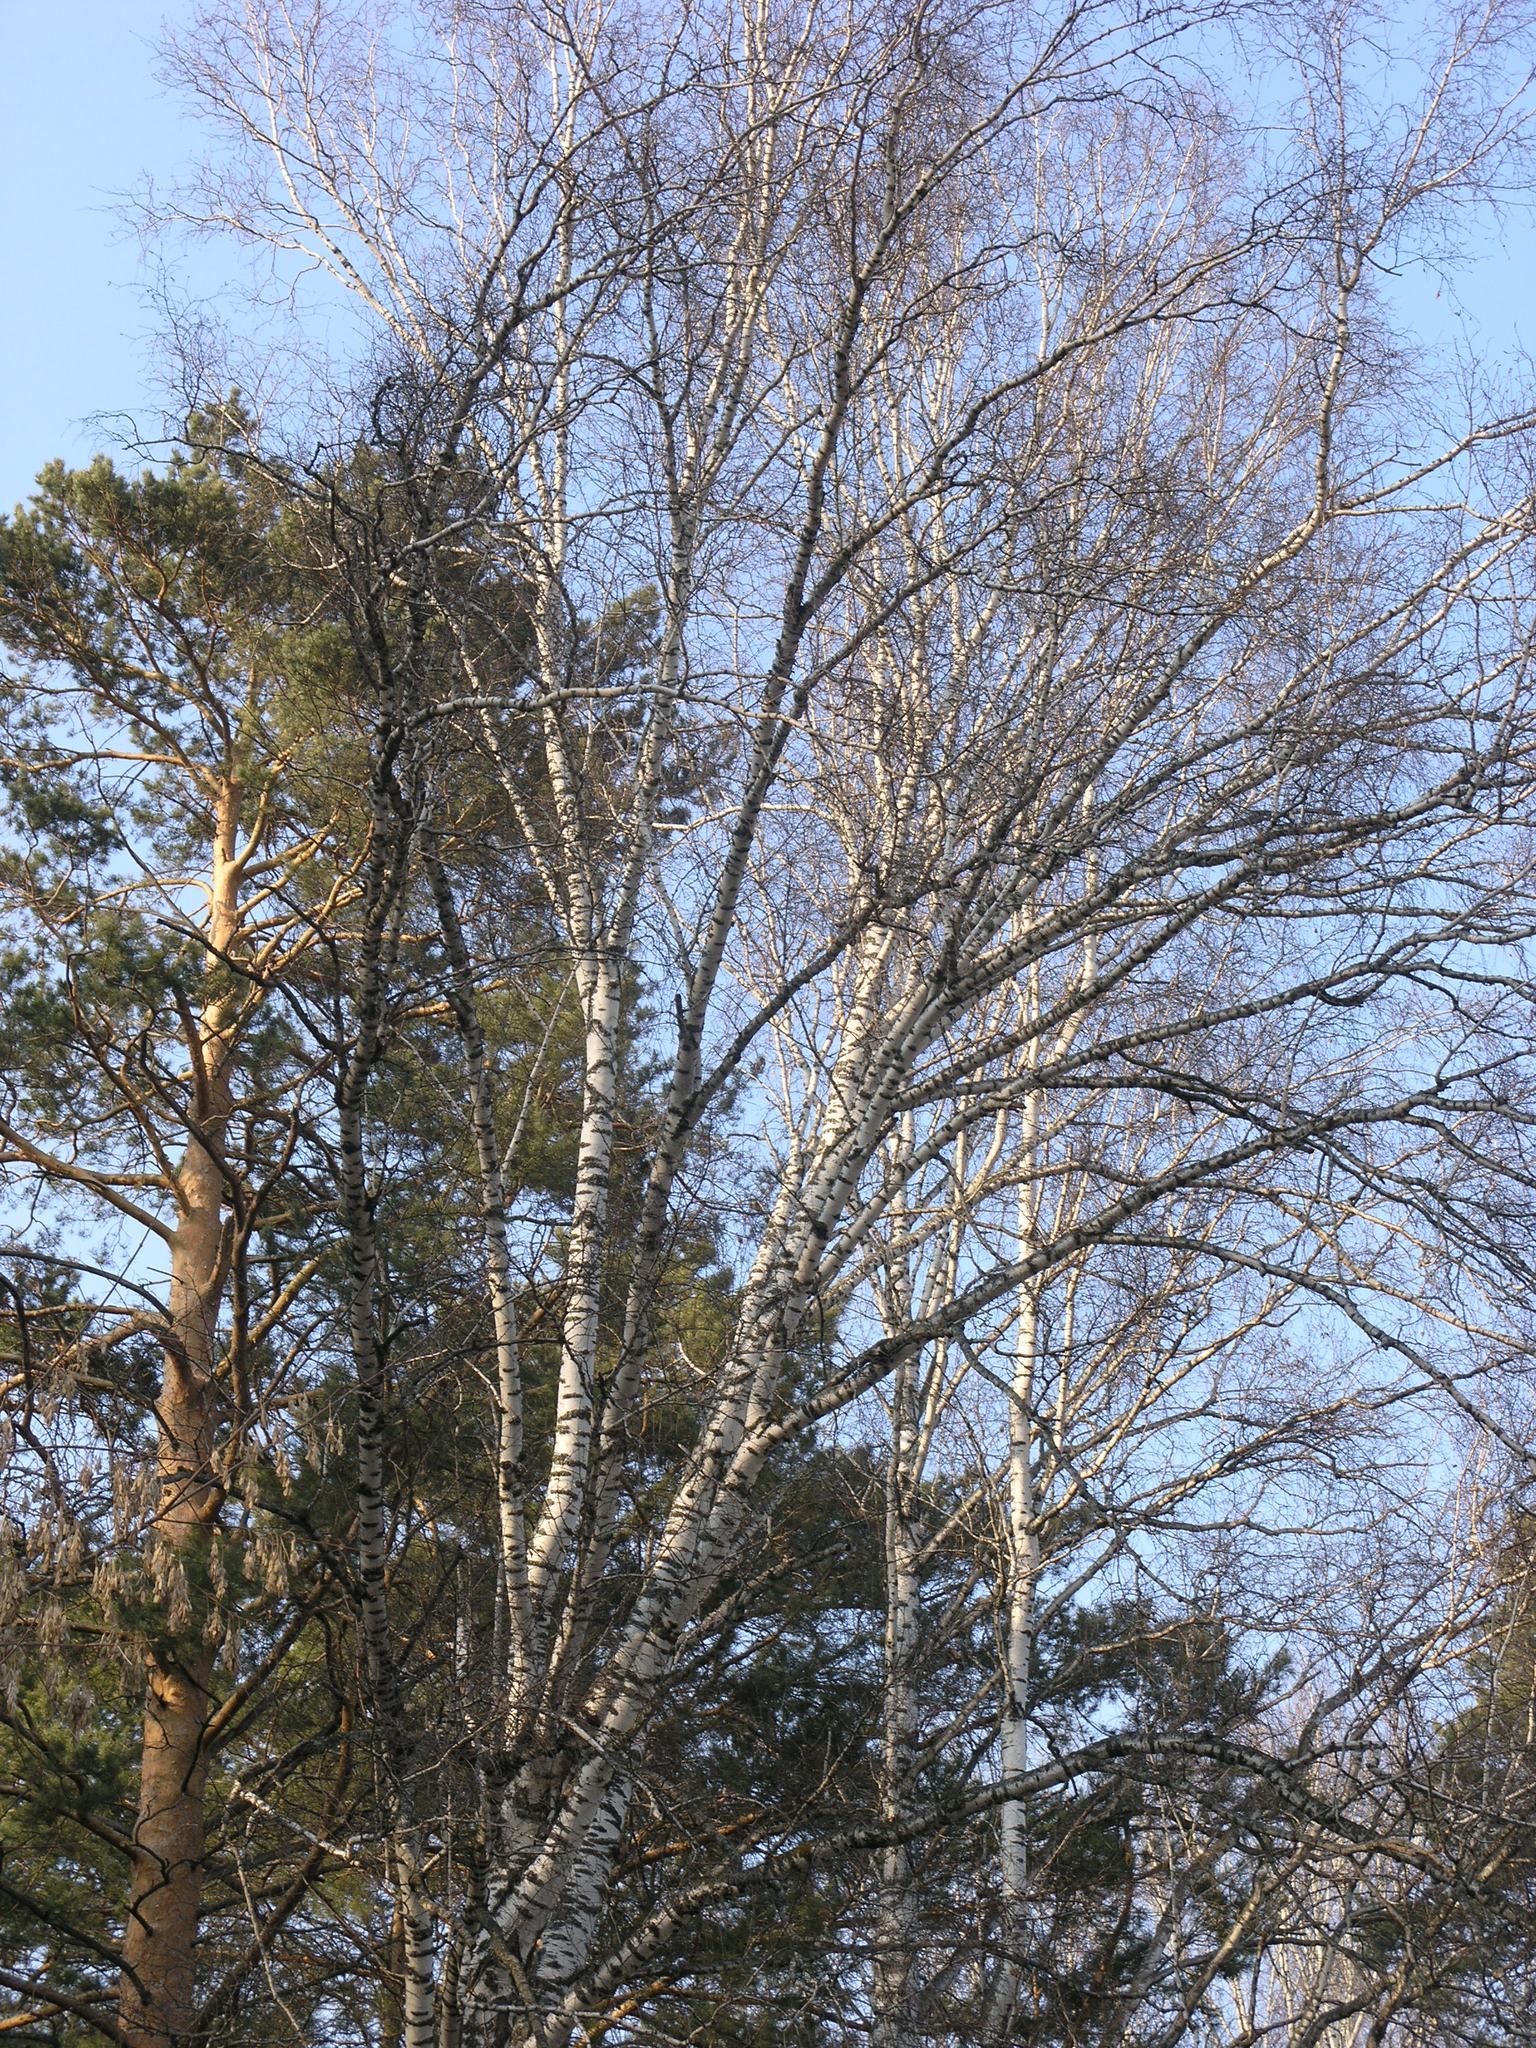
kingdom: Plantae
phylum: Tracheophyta
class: Magnoliopsida
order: Fagales
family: Betulaceae
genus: Betula
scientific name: Betula pendula
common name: Silver birch
